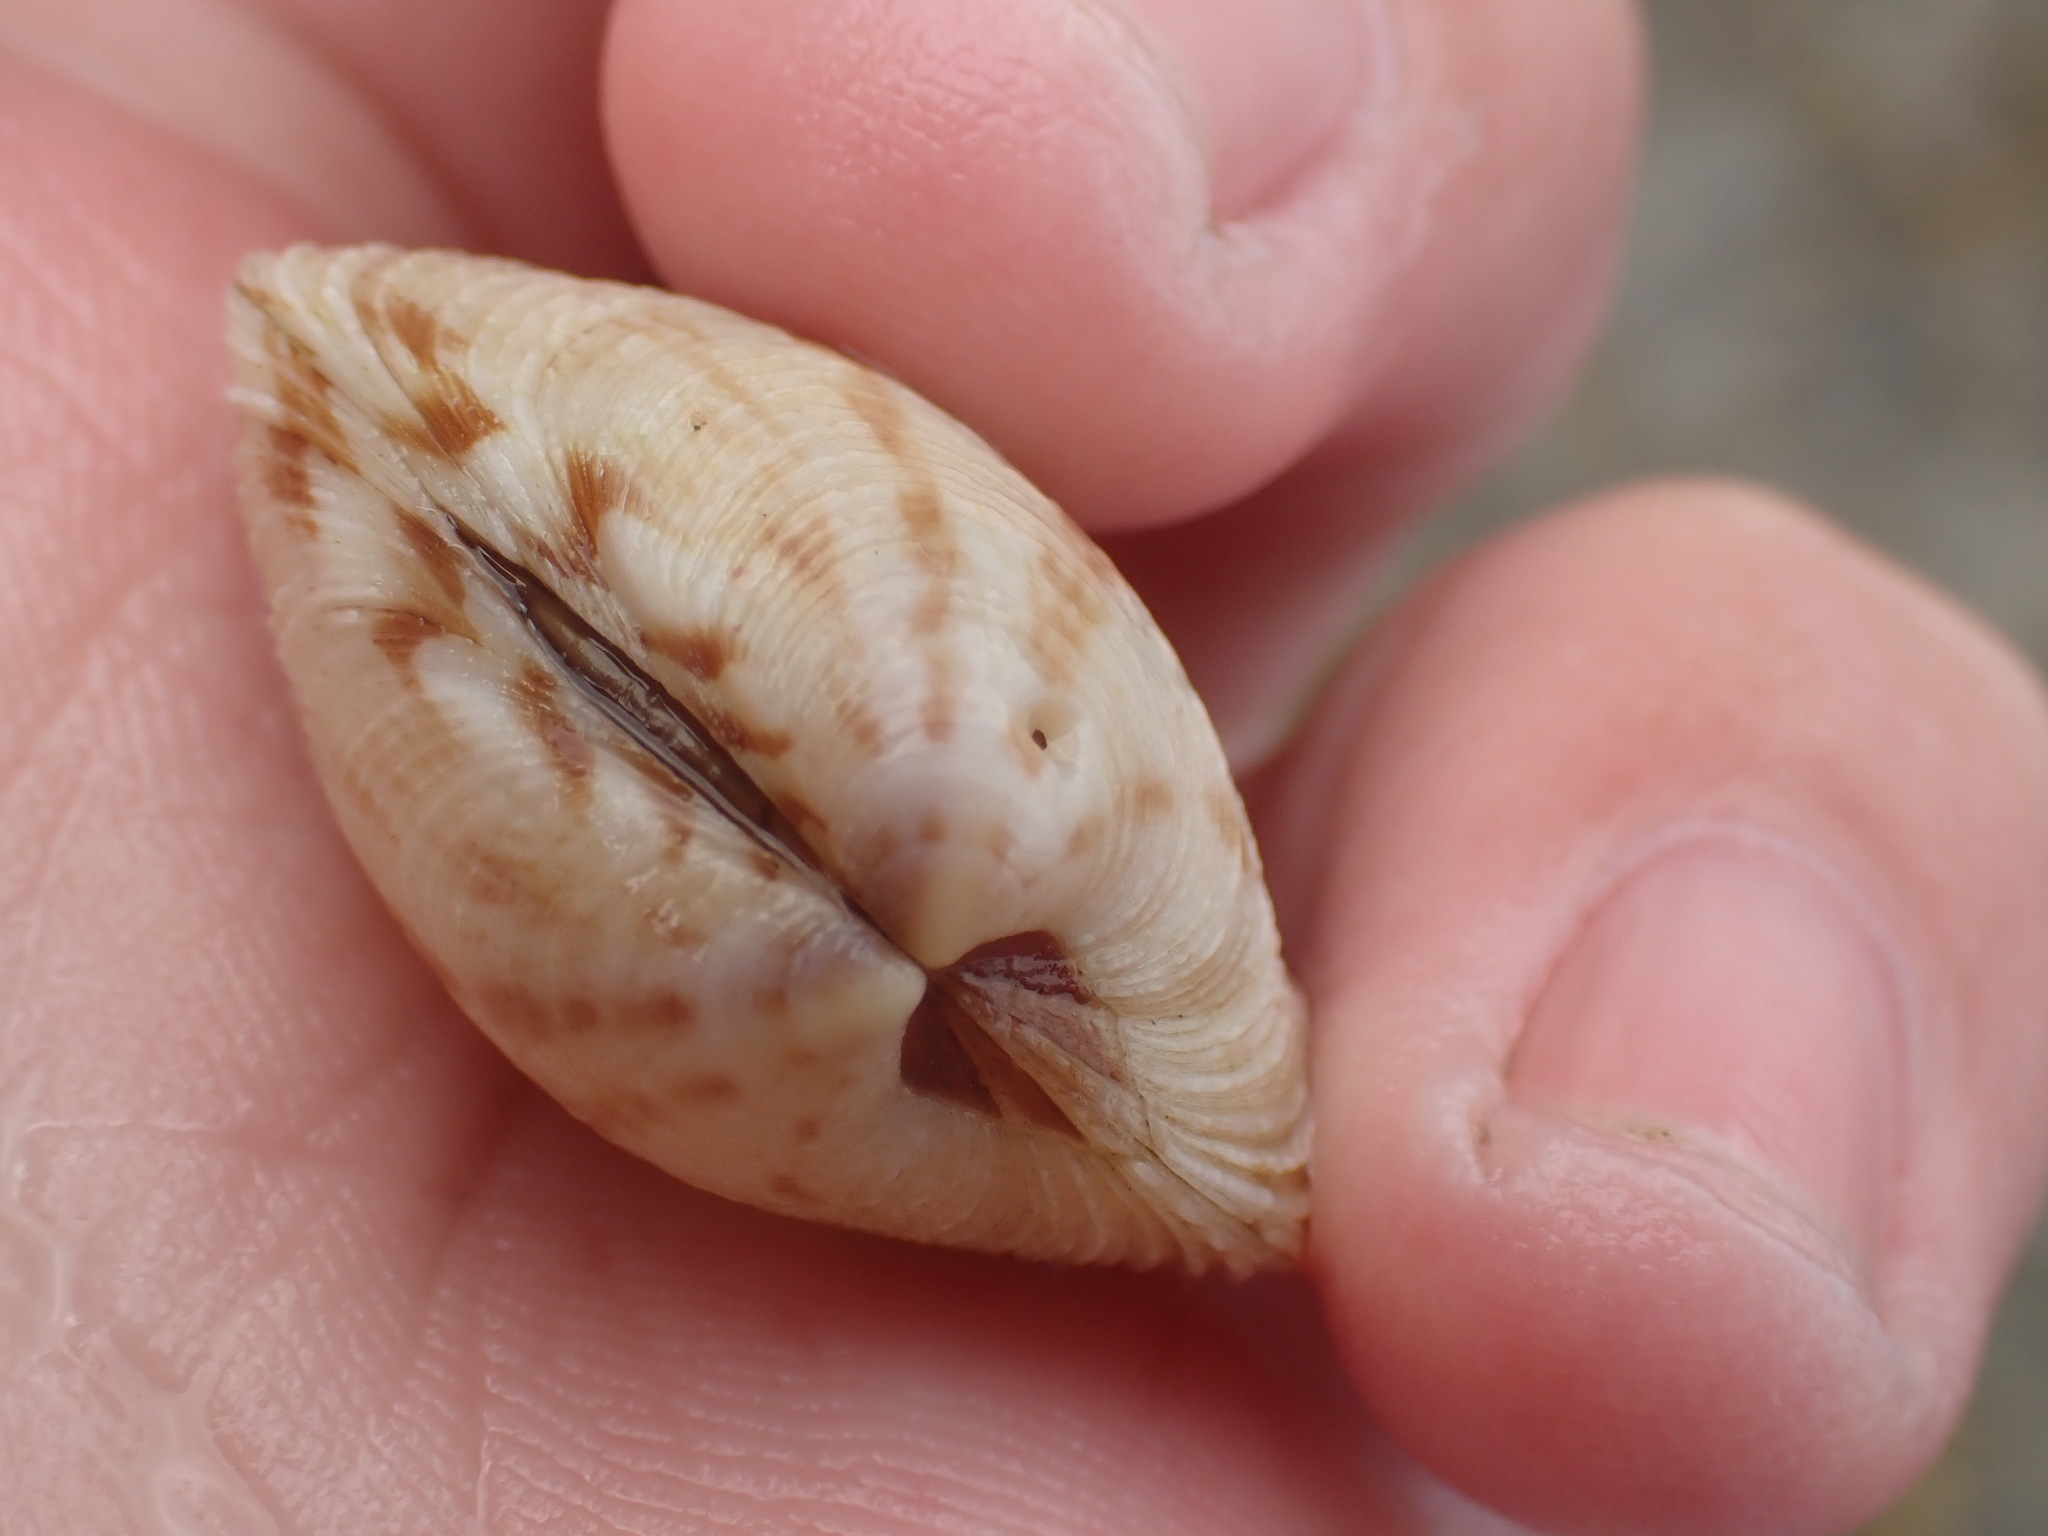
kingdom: Animalia
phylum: Mollusca
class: Bivalvia
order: Venerida
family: Veneridae
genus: Dosina
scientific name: Dosina mactracea
